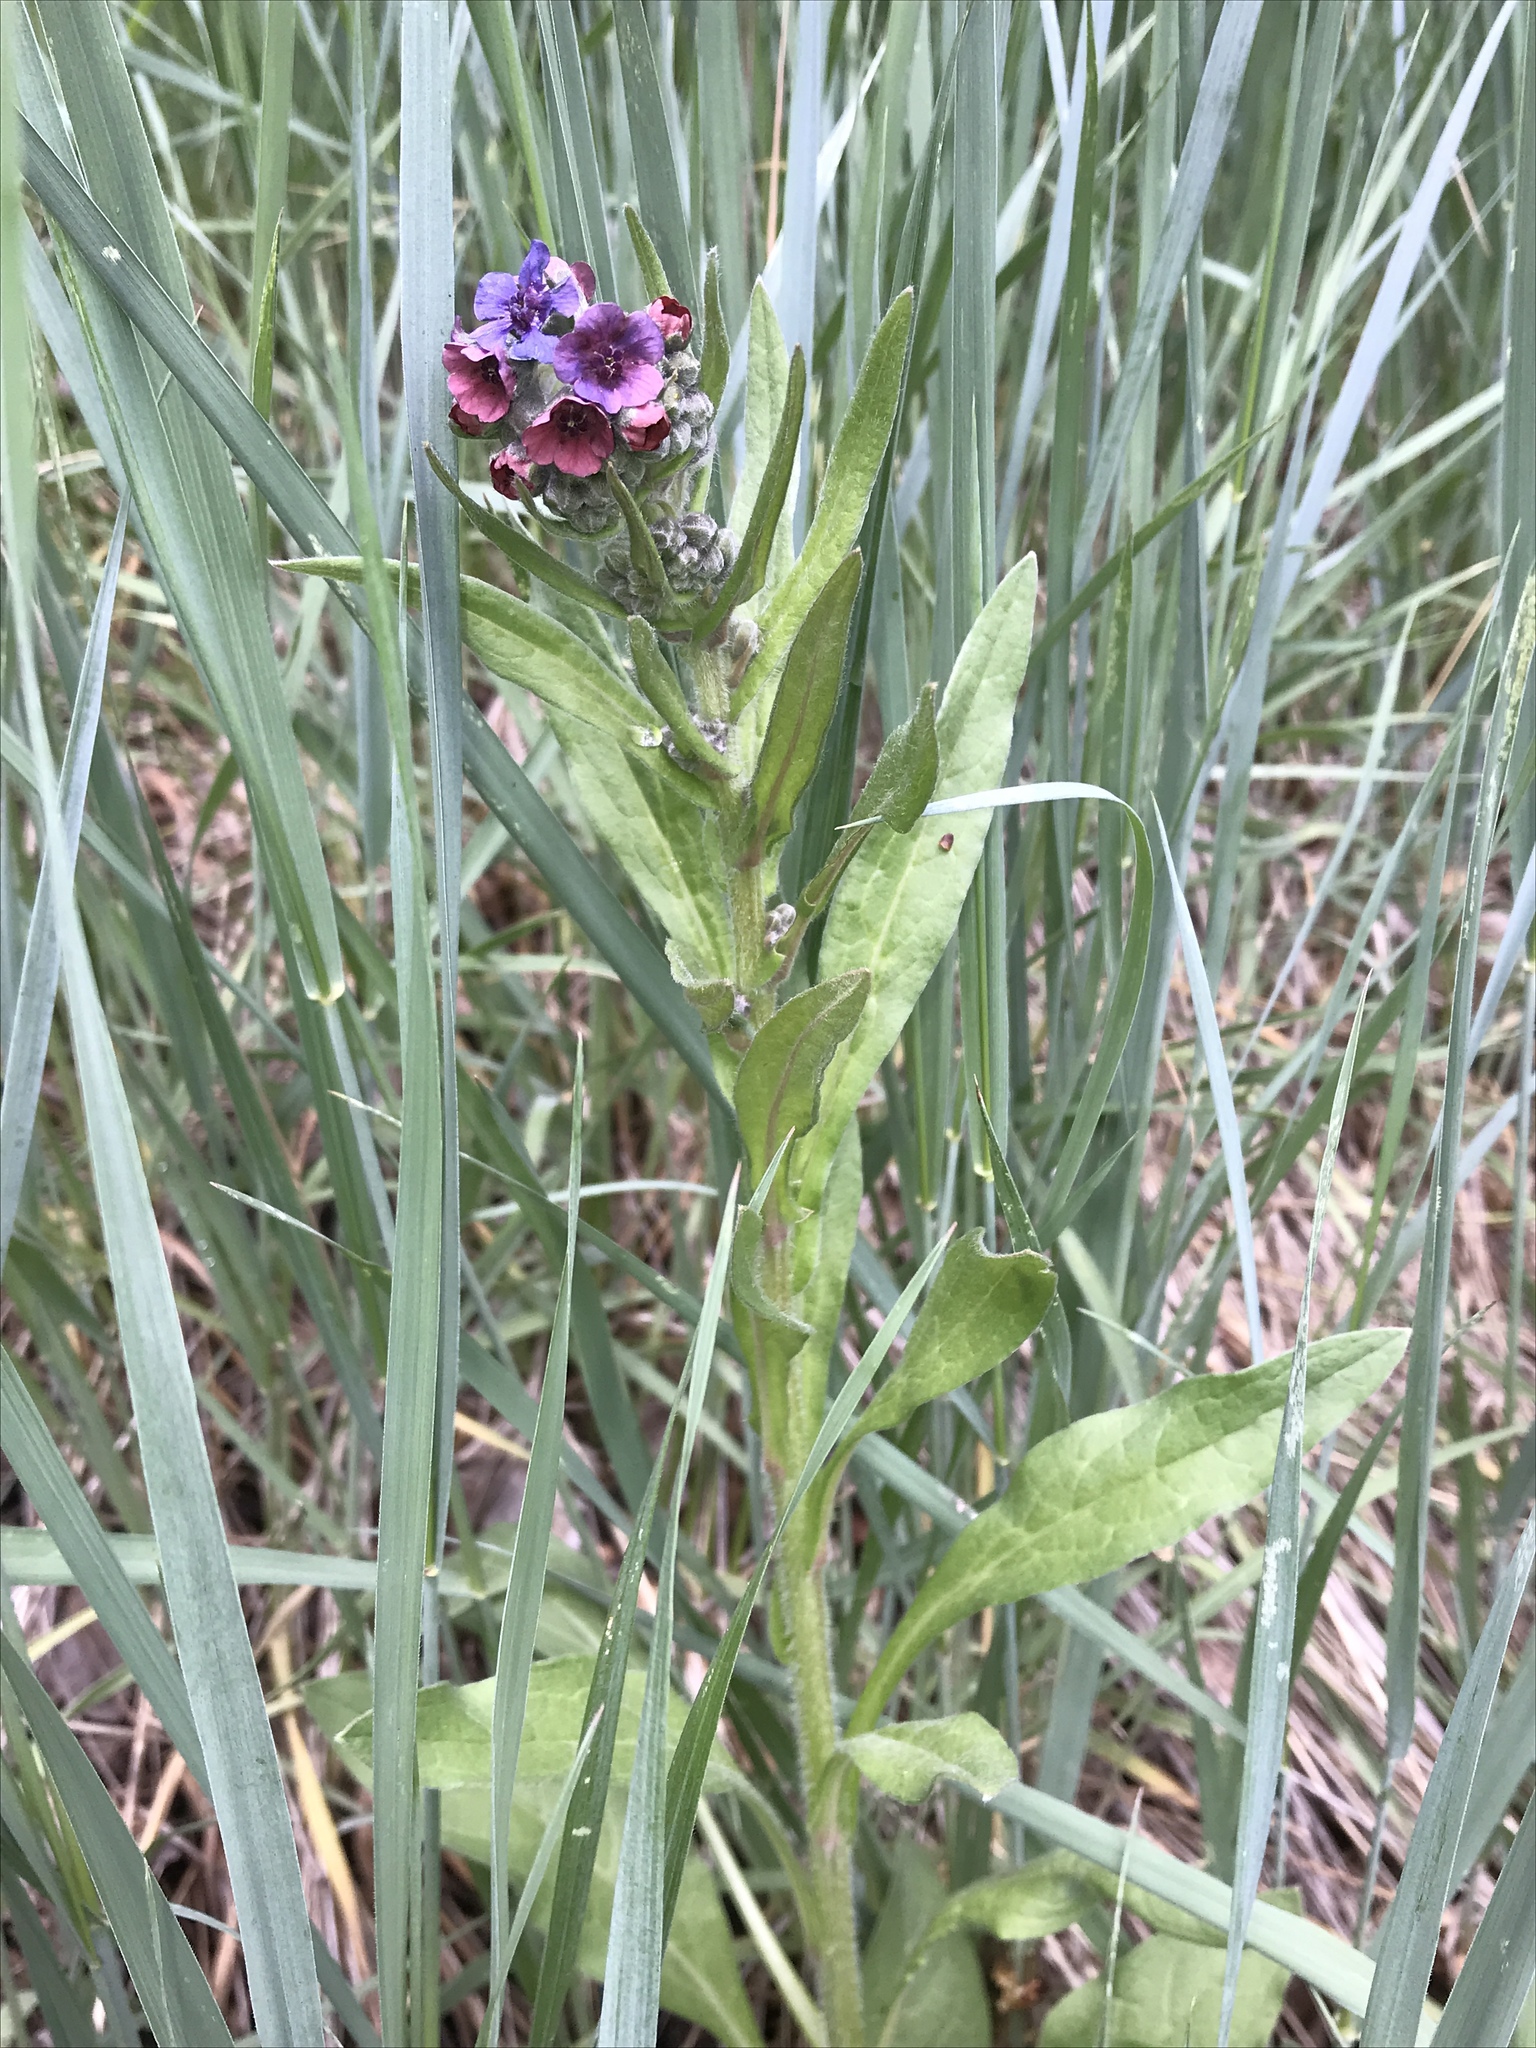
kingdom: Plantae
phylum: Tracheophyta
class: Magnoliopsida
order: Boraginales
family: Boraginaceae
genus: Cynoglossum
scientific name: Cynoglossum officinale
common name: Hound's-tongue
